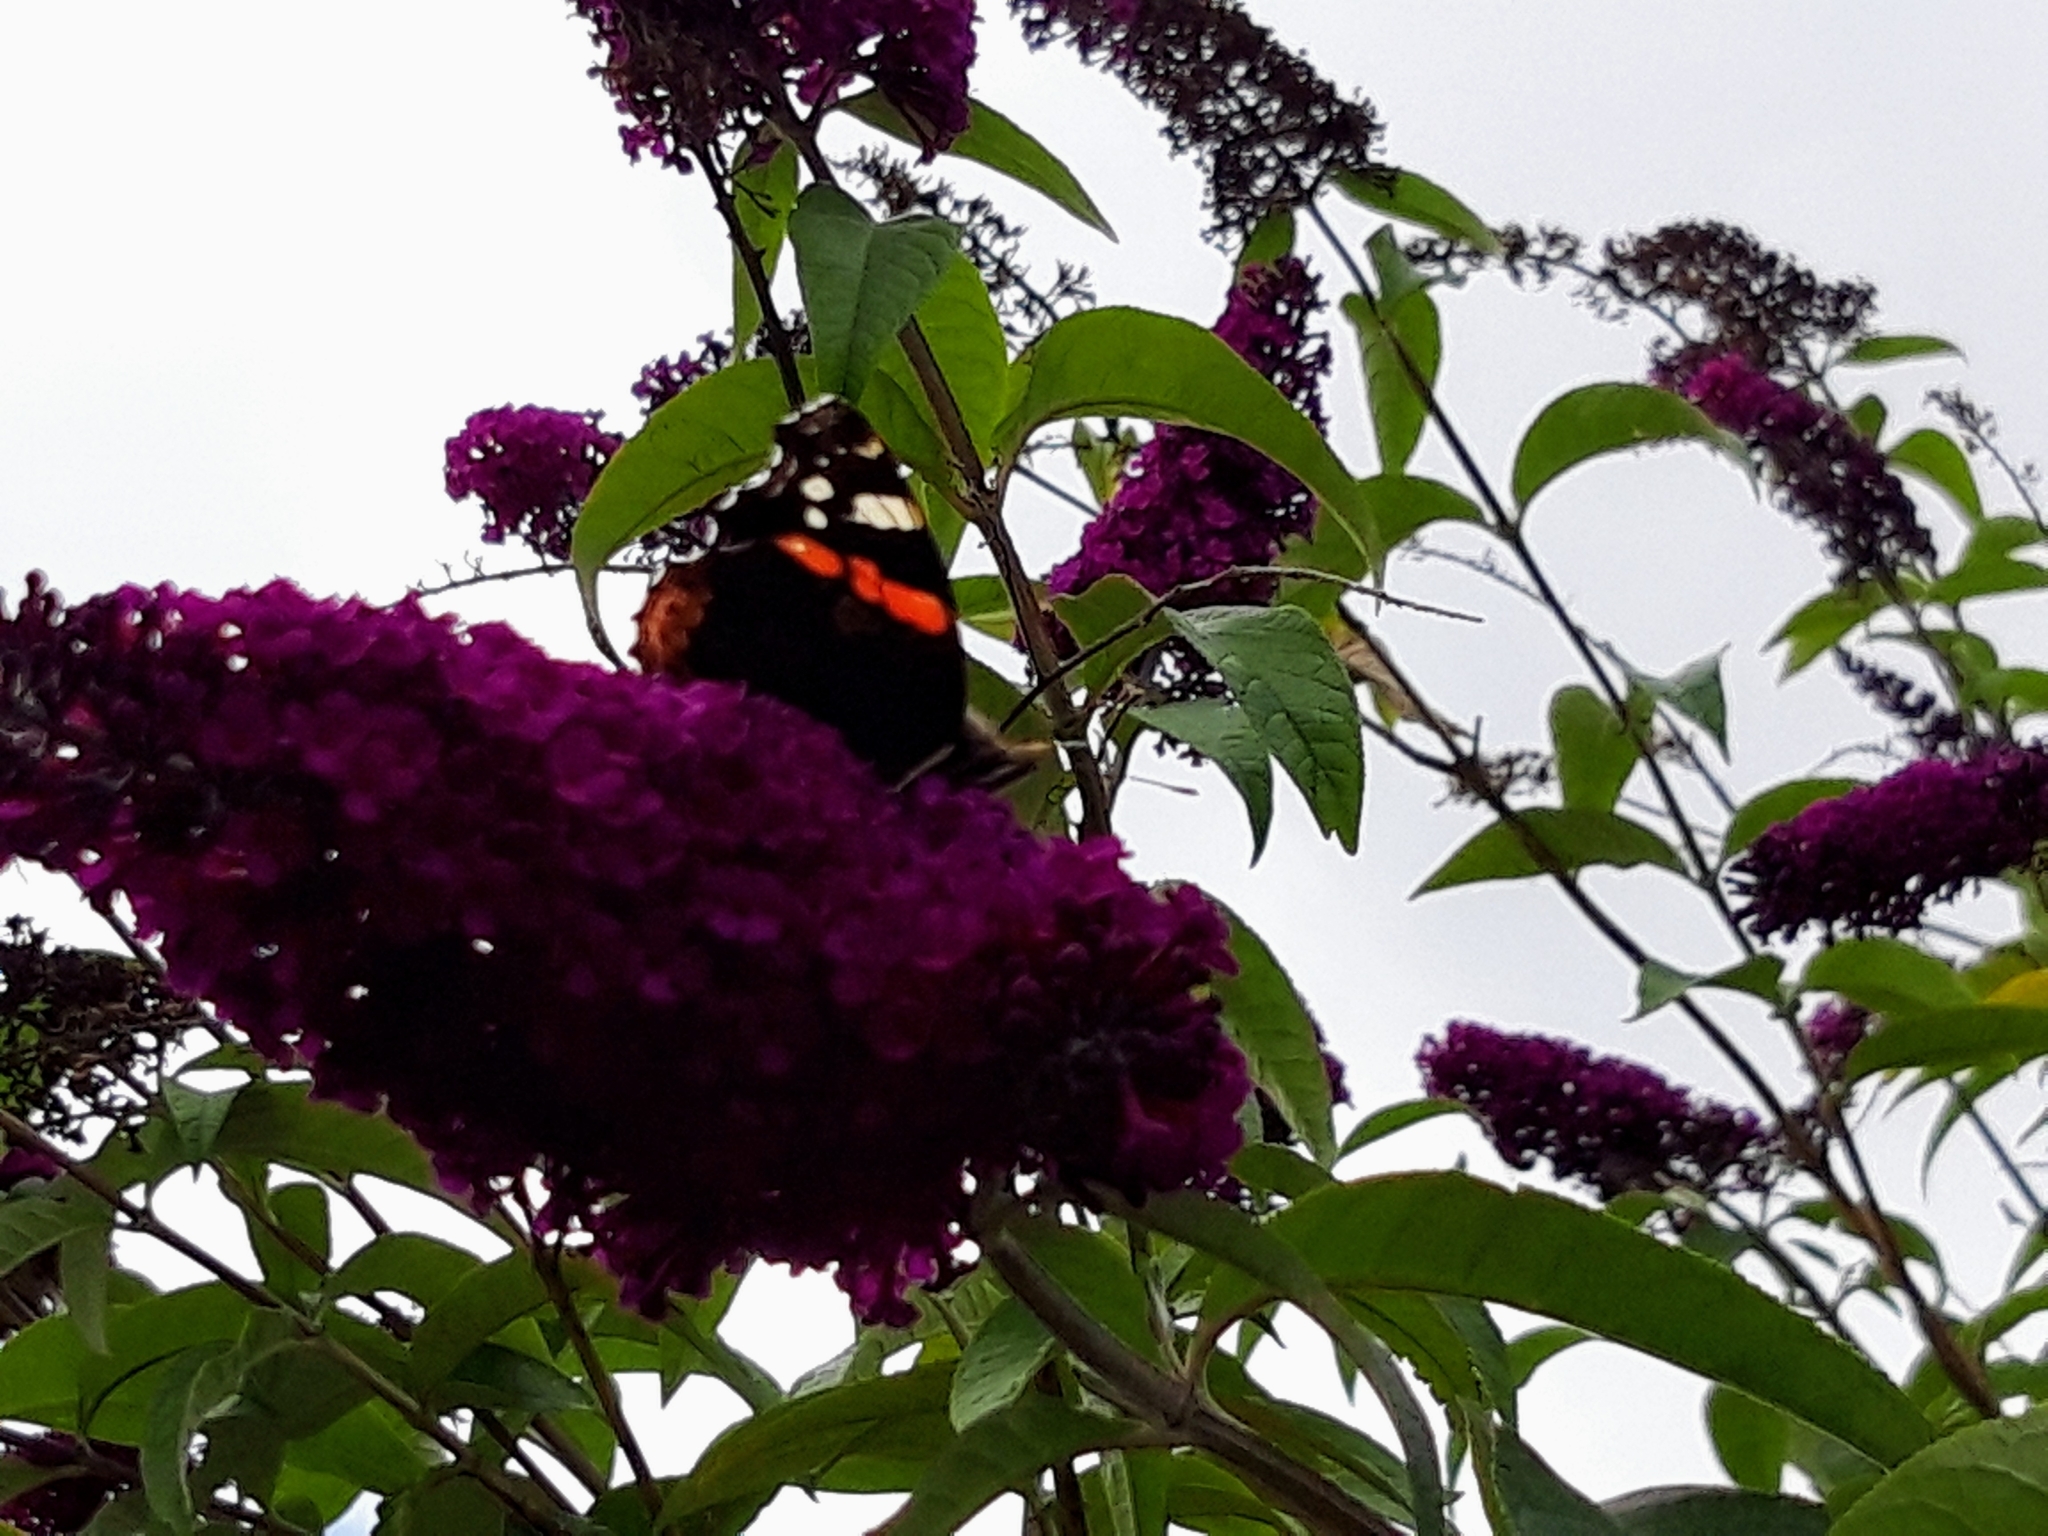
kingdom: Animalia
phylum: Arthropoda
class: Insecta
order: Lepidoptera
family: Nymphalidae
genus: Vanessa
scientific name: Vanessa atalanta
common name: Red admiral
